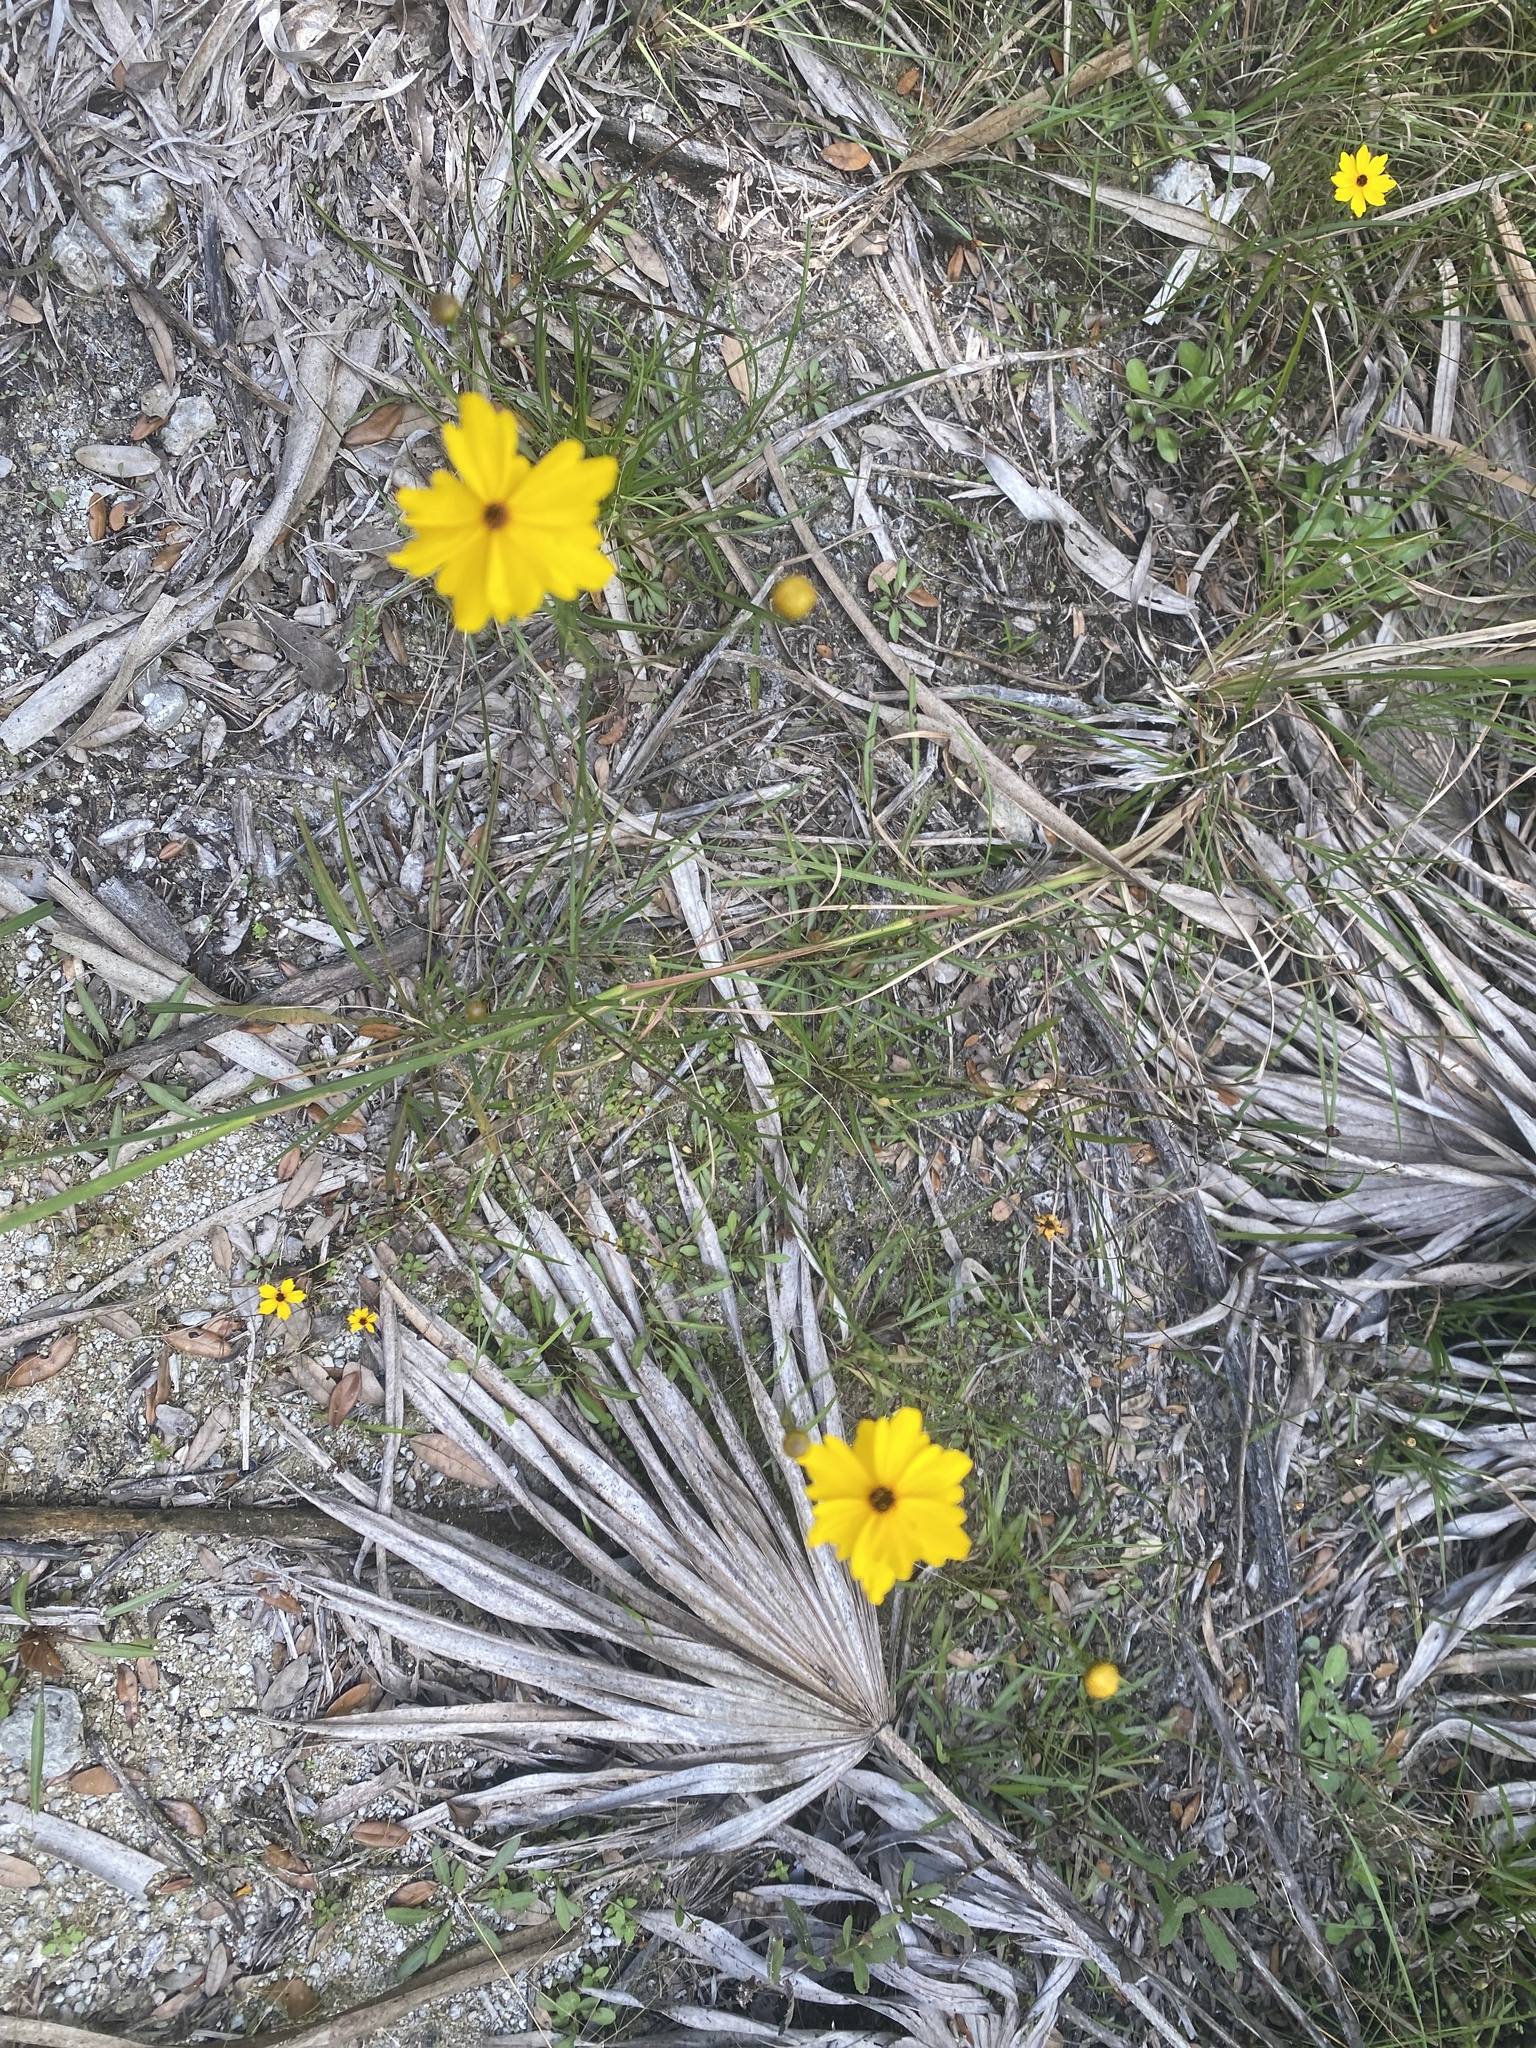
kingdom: Plantae
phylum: Tracheophyta
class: Magnoliopsida
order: Asterales
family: Asteraceae
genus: Coreopsis
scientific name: Coreopsis leavenworthii
